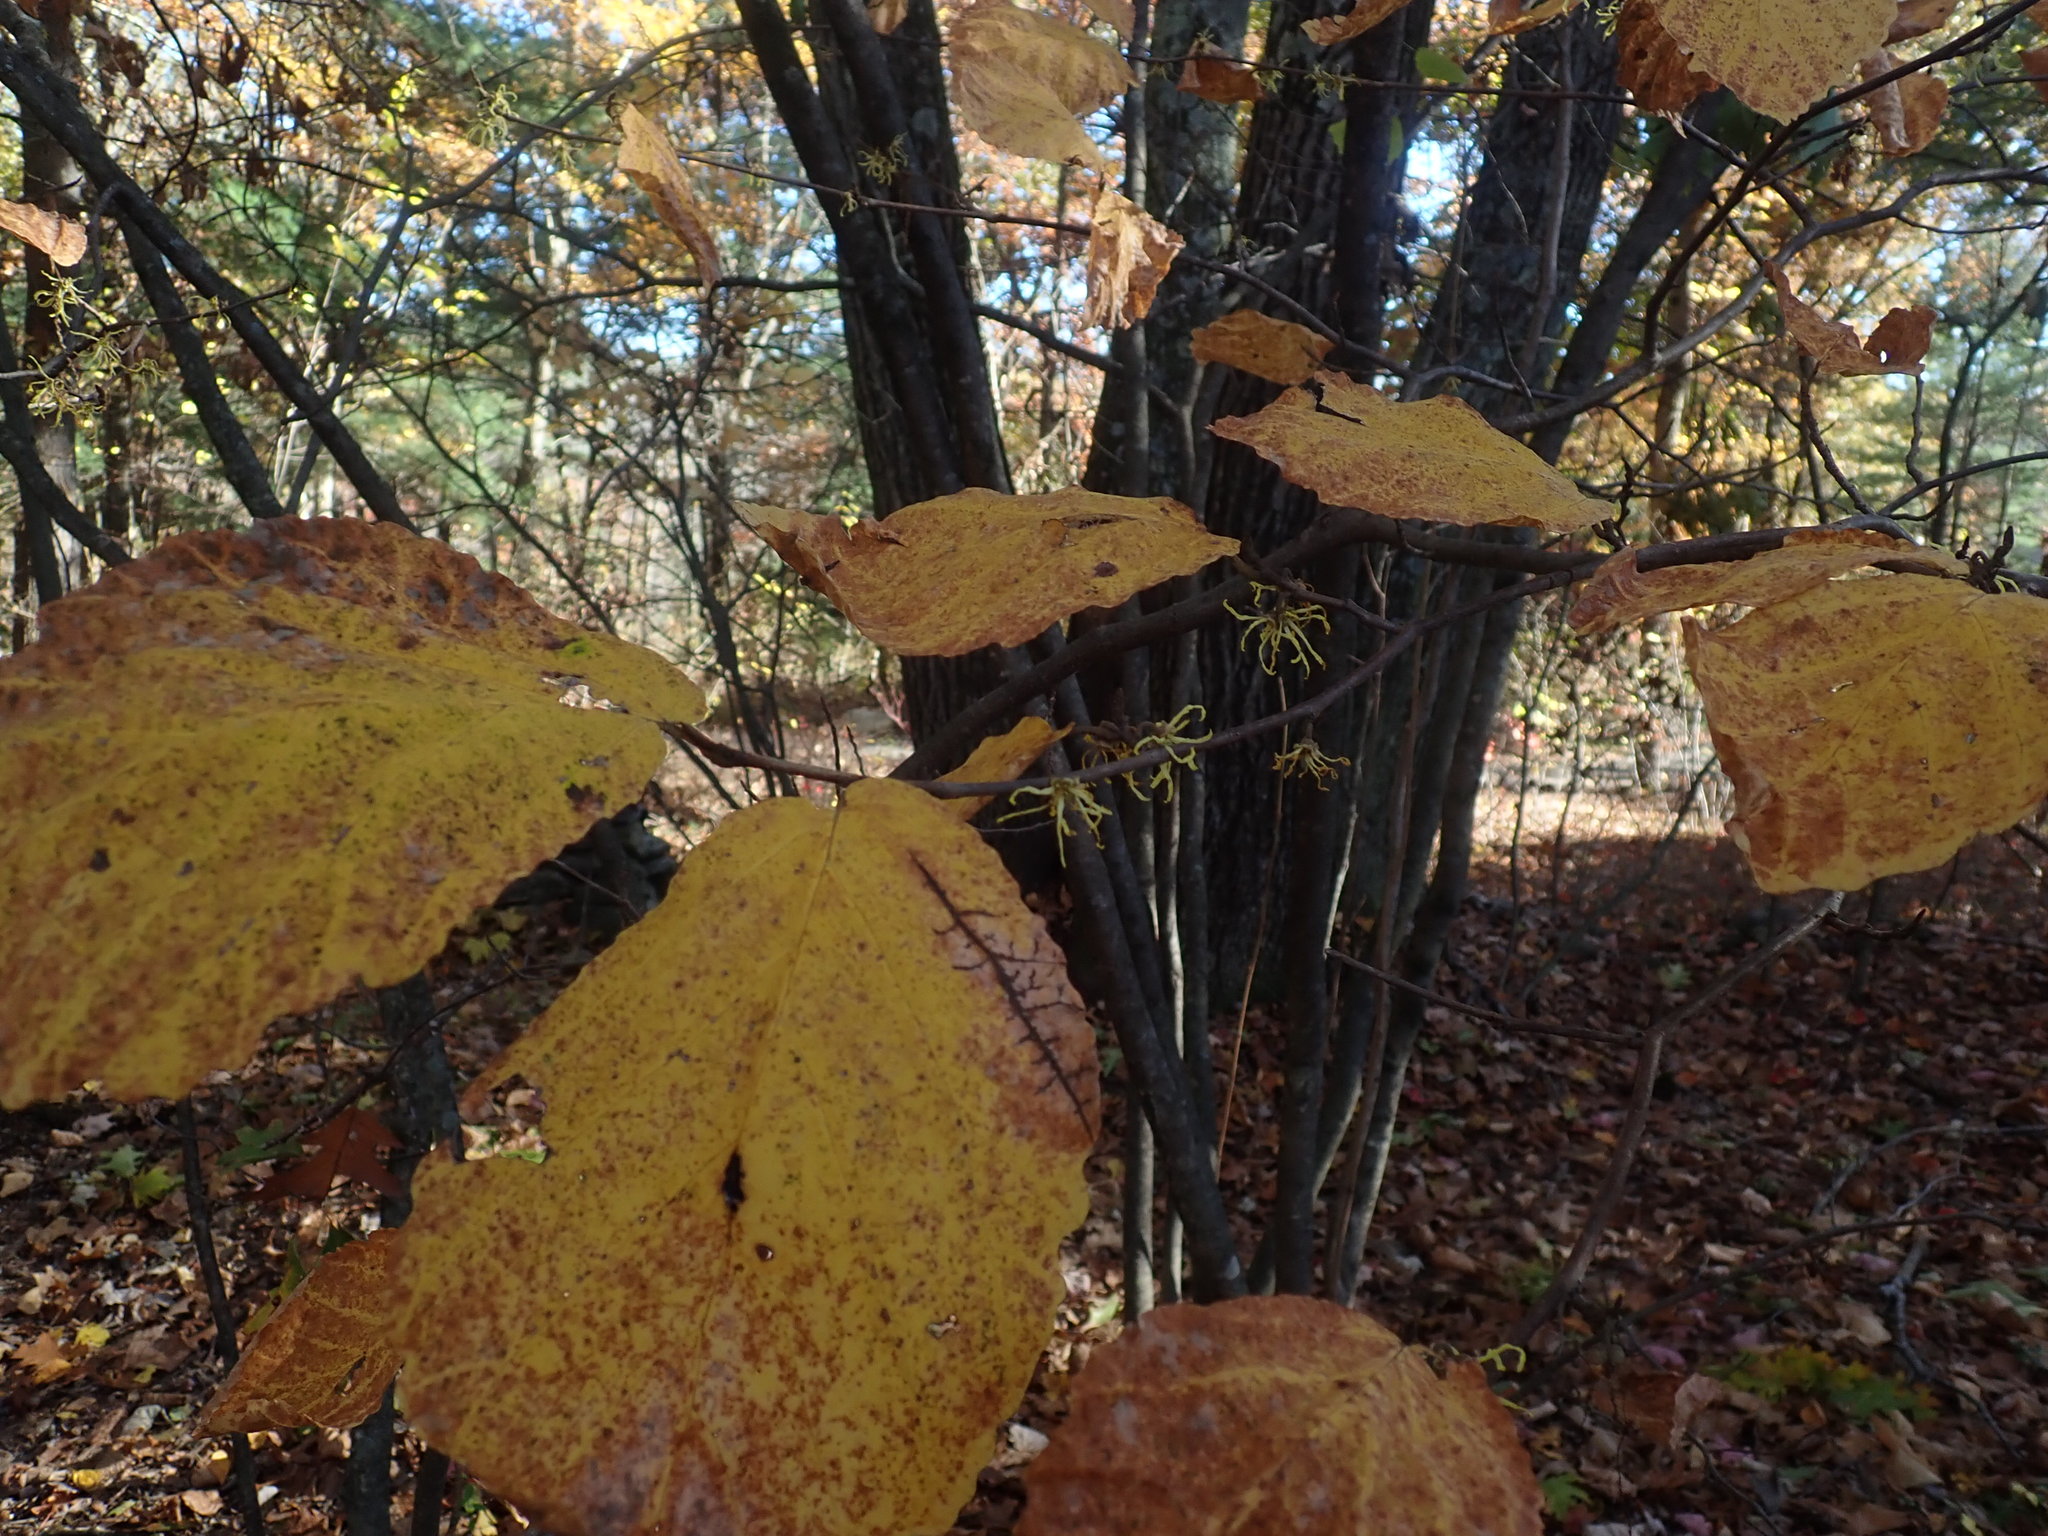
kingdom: Plantae
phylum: Tracheophyta
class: Magnoliopsida
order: Saxifragales
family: Hamamelidaceae
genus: Hamamelis
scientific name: Hamamelis virginiana
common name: Witch-hazel
